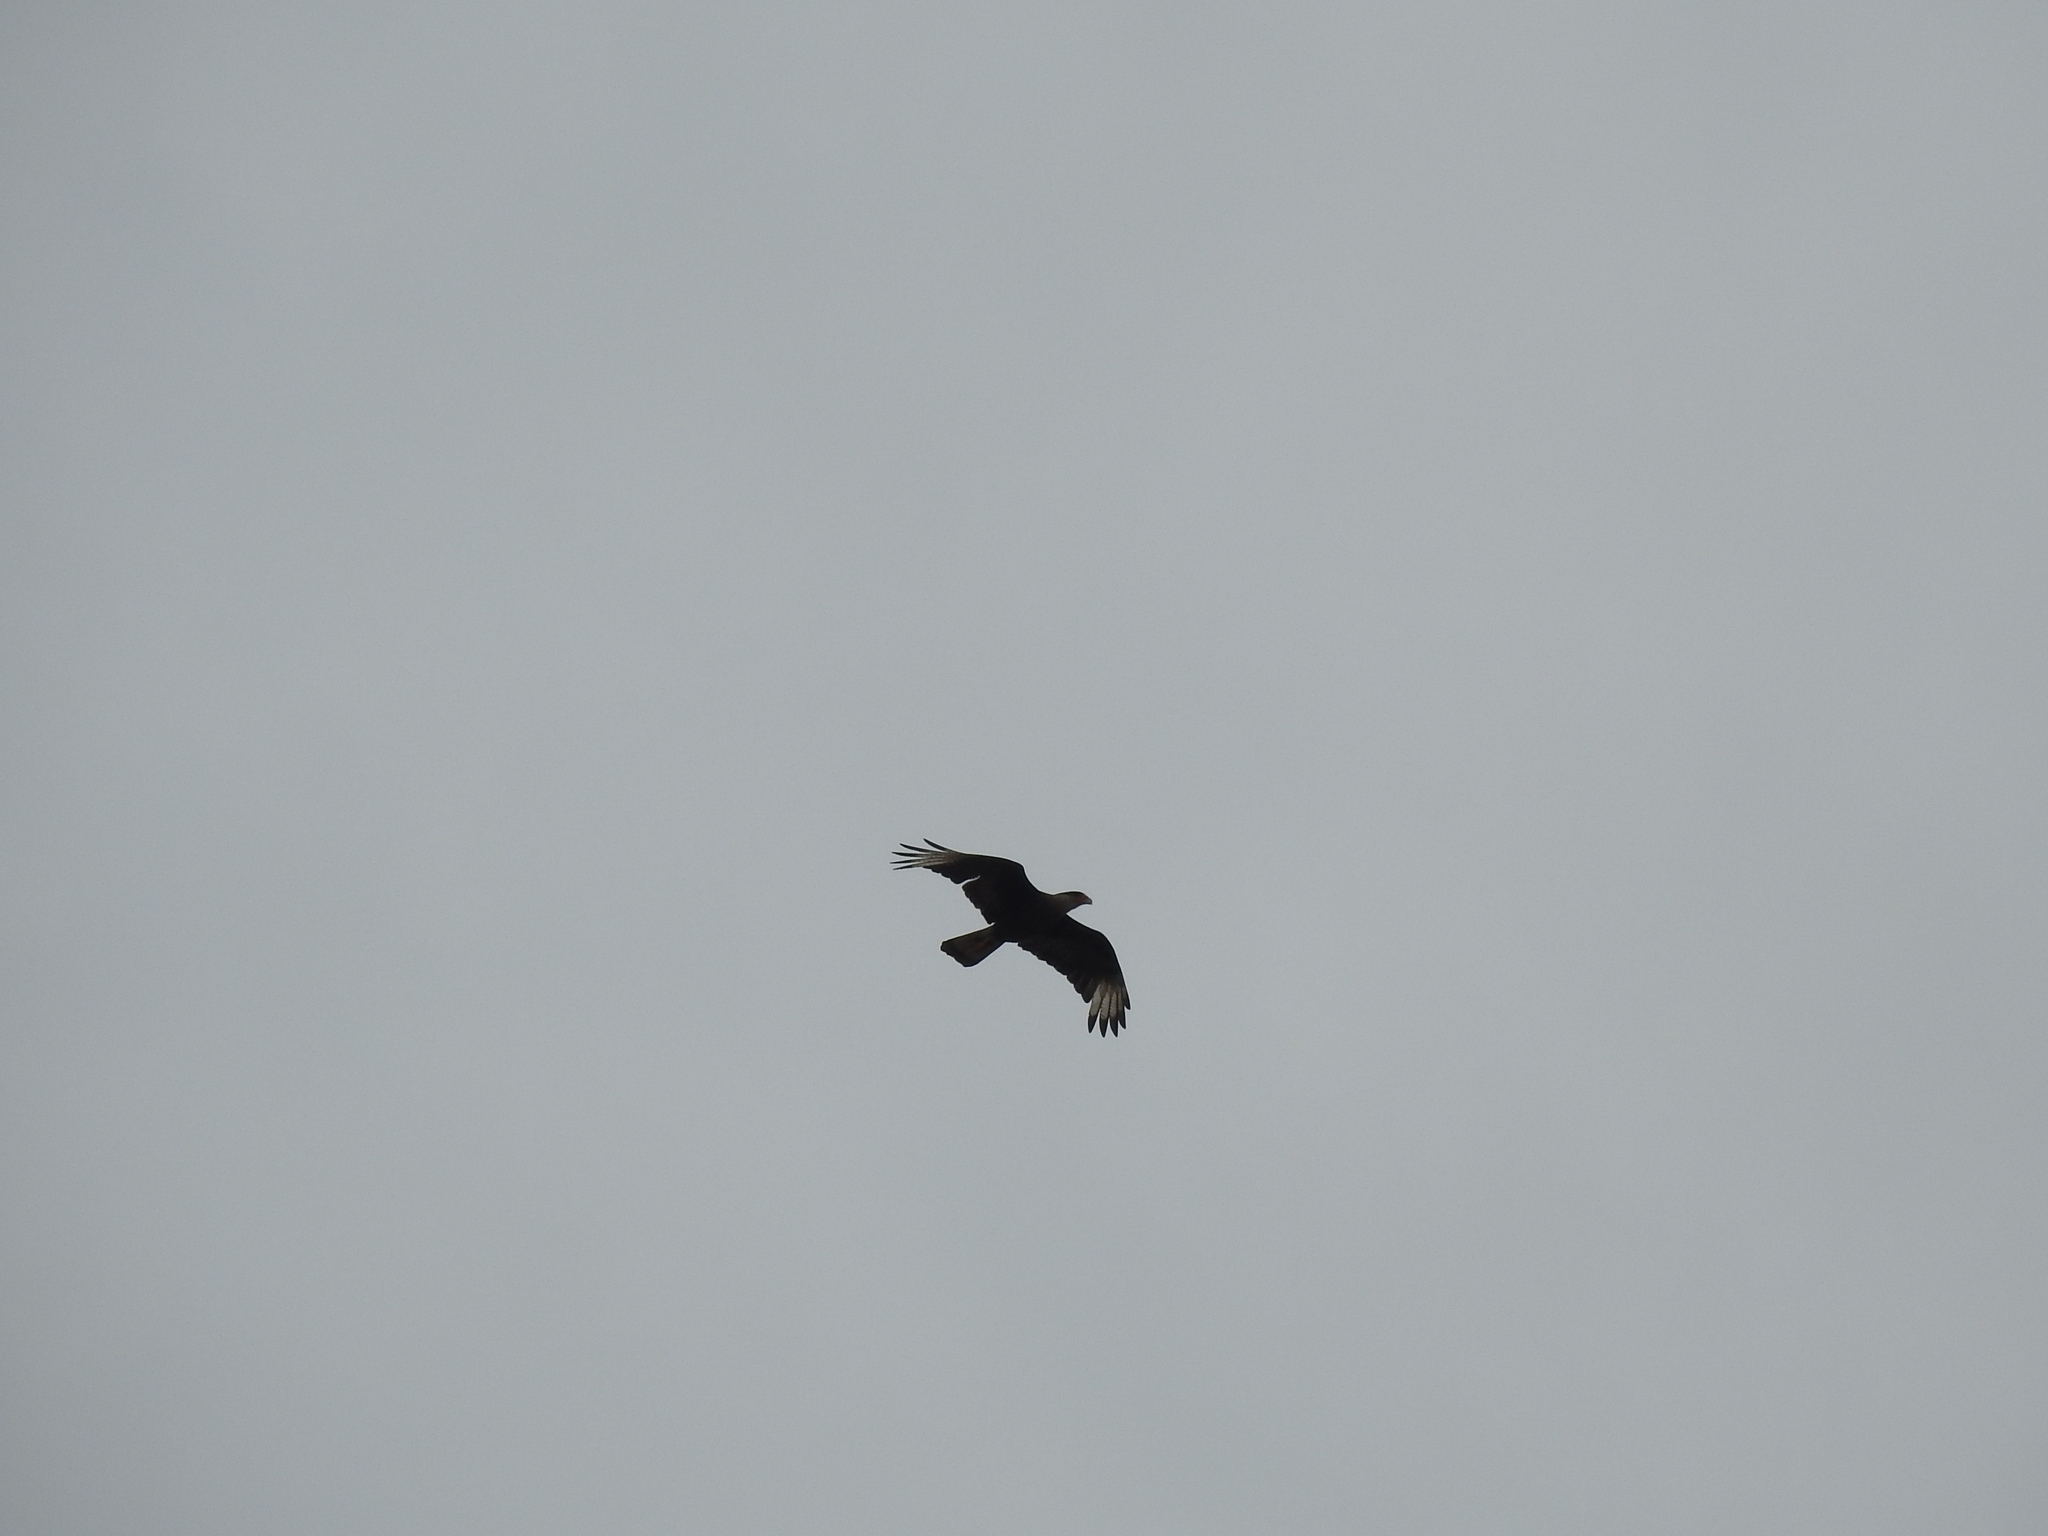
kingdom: Animalia
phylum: Chordata
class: Aves
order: Falconiformes
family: Falconidae
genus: Caracara
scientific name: Caracara plancus
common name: Southern caracara
